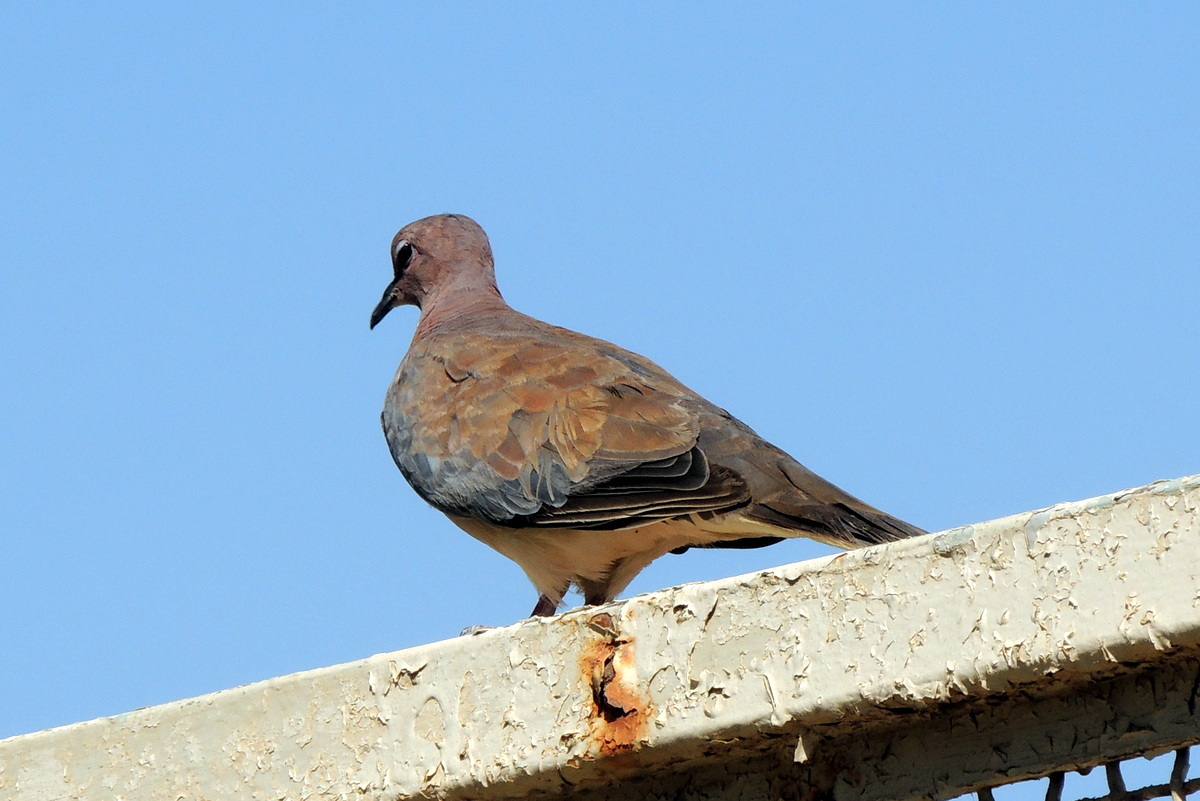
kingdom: Animalia
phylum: Chordata
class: Aves
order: Columbiformes
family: Columbidae
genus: Spilopelia
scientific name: Spilopelia senegalensis
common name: Laughing dove
